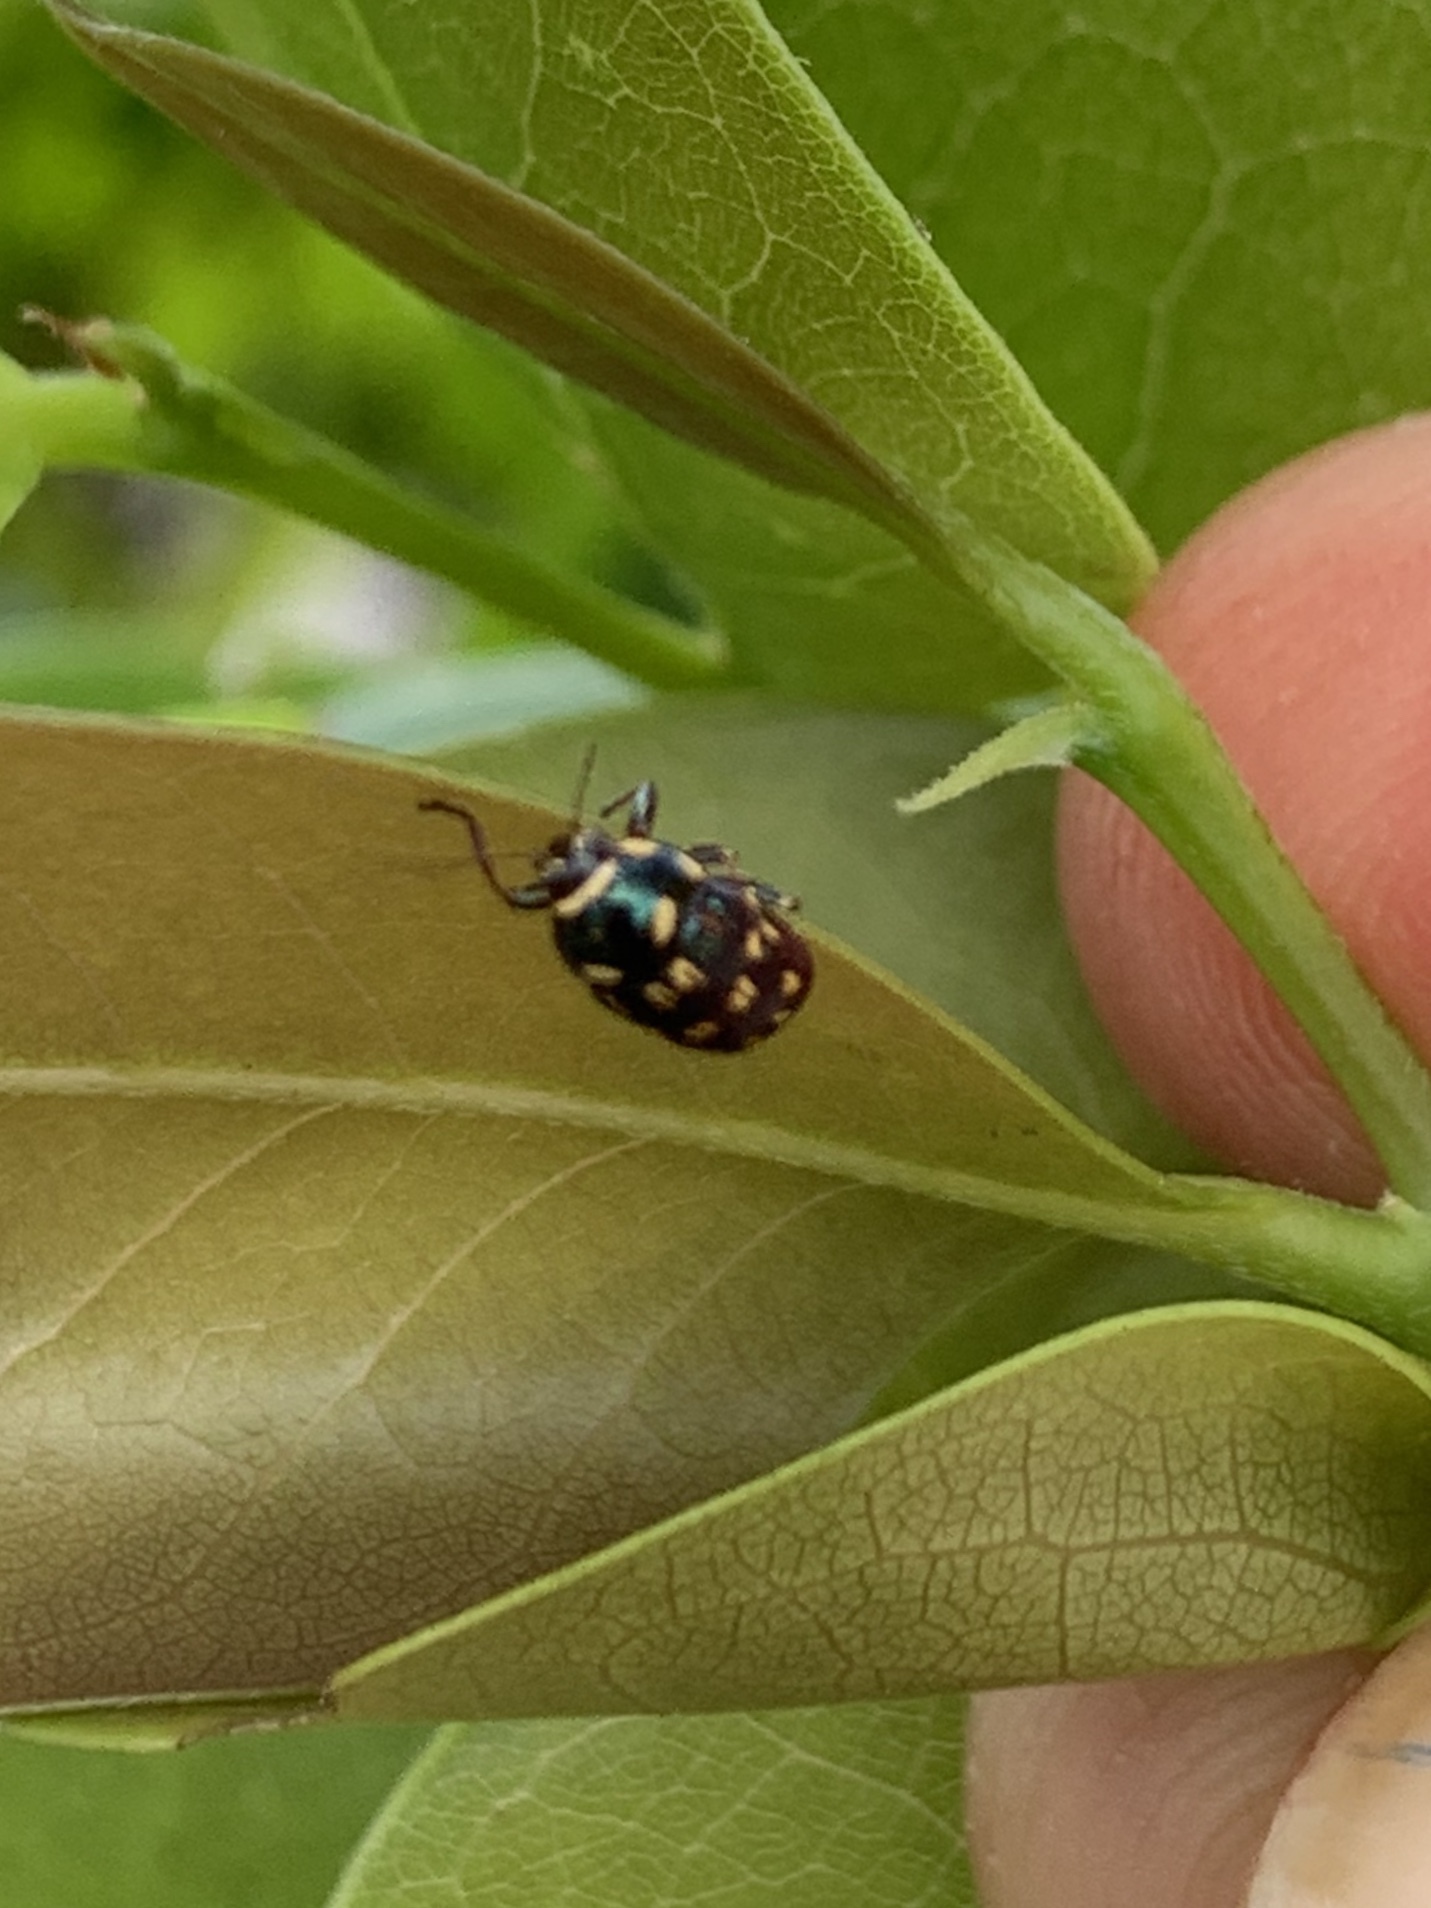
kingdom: Animalia
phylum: Arthropoda
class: Insecta
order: Coleoptera
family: Chrysomelidae
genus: Cryptocephalus
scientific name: Cryptocephalus nigrocinctus
